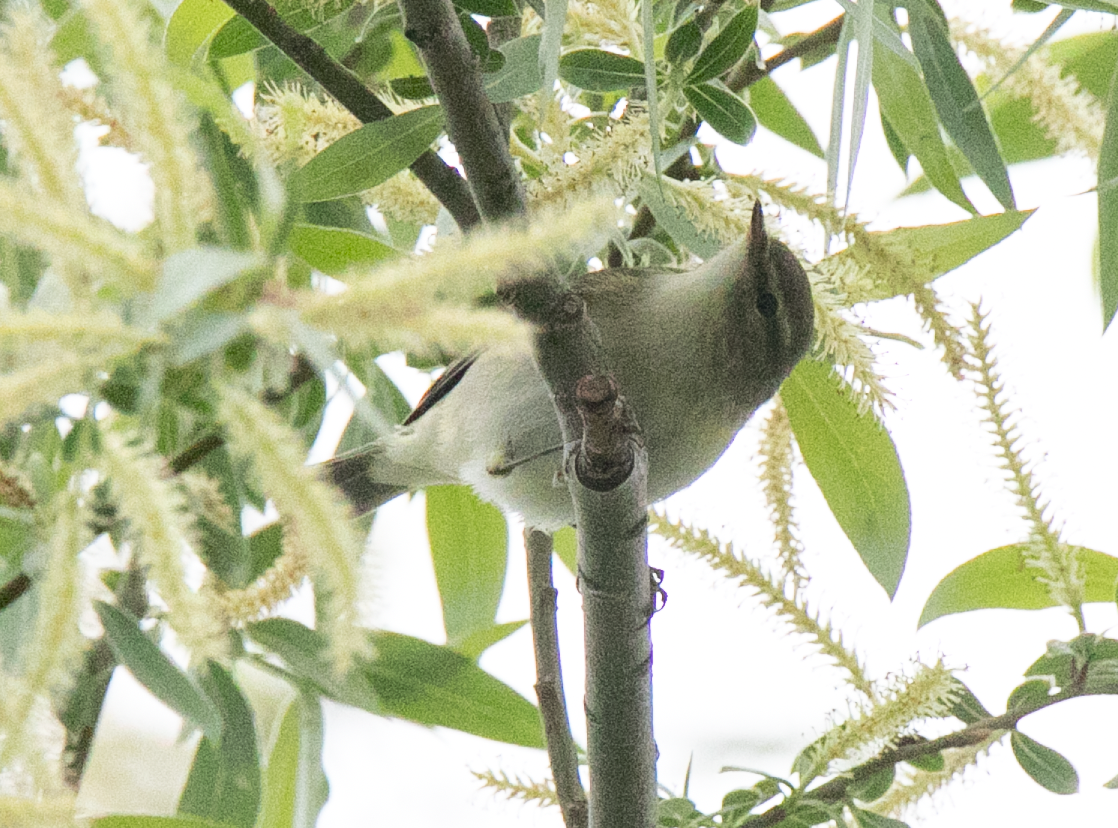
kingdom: Animalia
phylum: Chordata
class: Aves
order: Passeriformes
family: Phylloscopidae
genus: Phylloscopus
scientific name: Phylloscopus collybita
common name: Common chiffchaff
